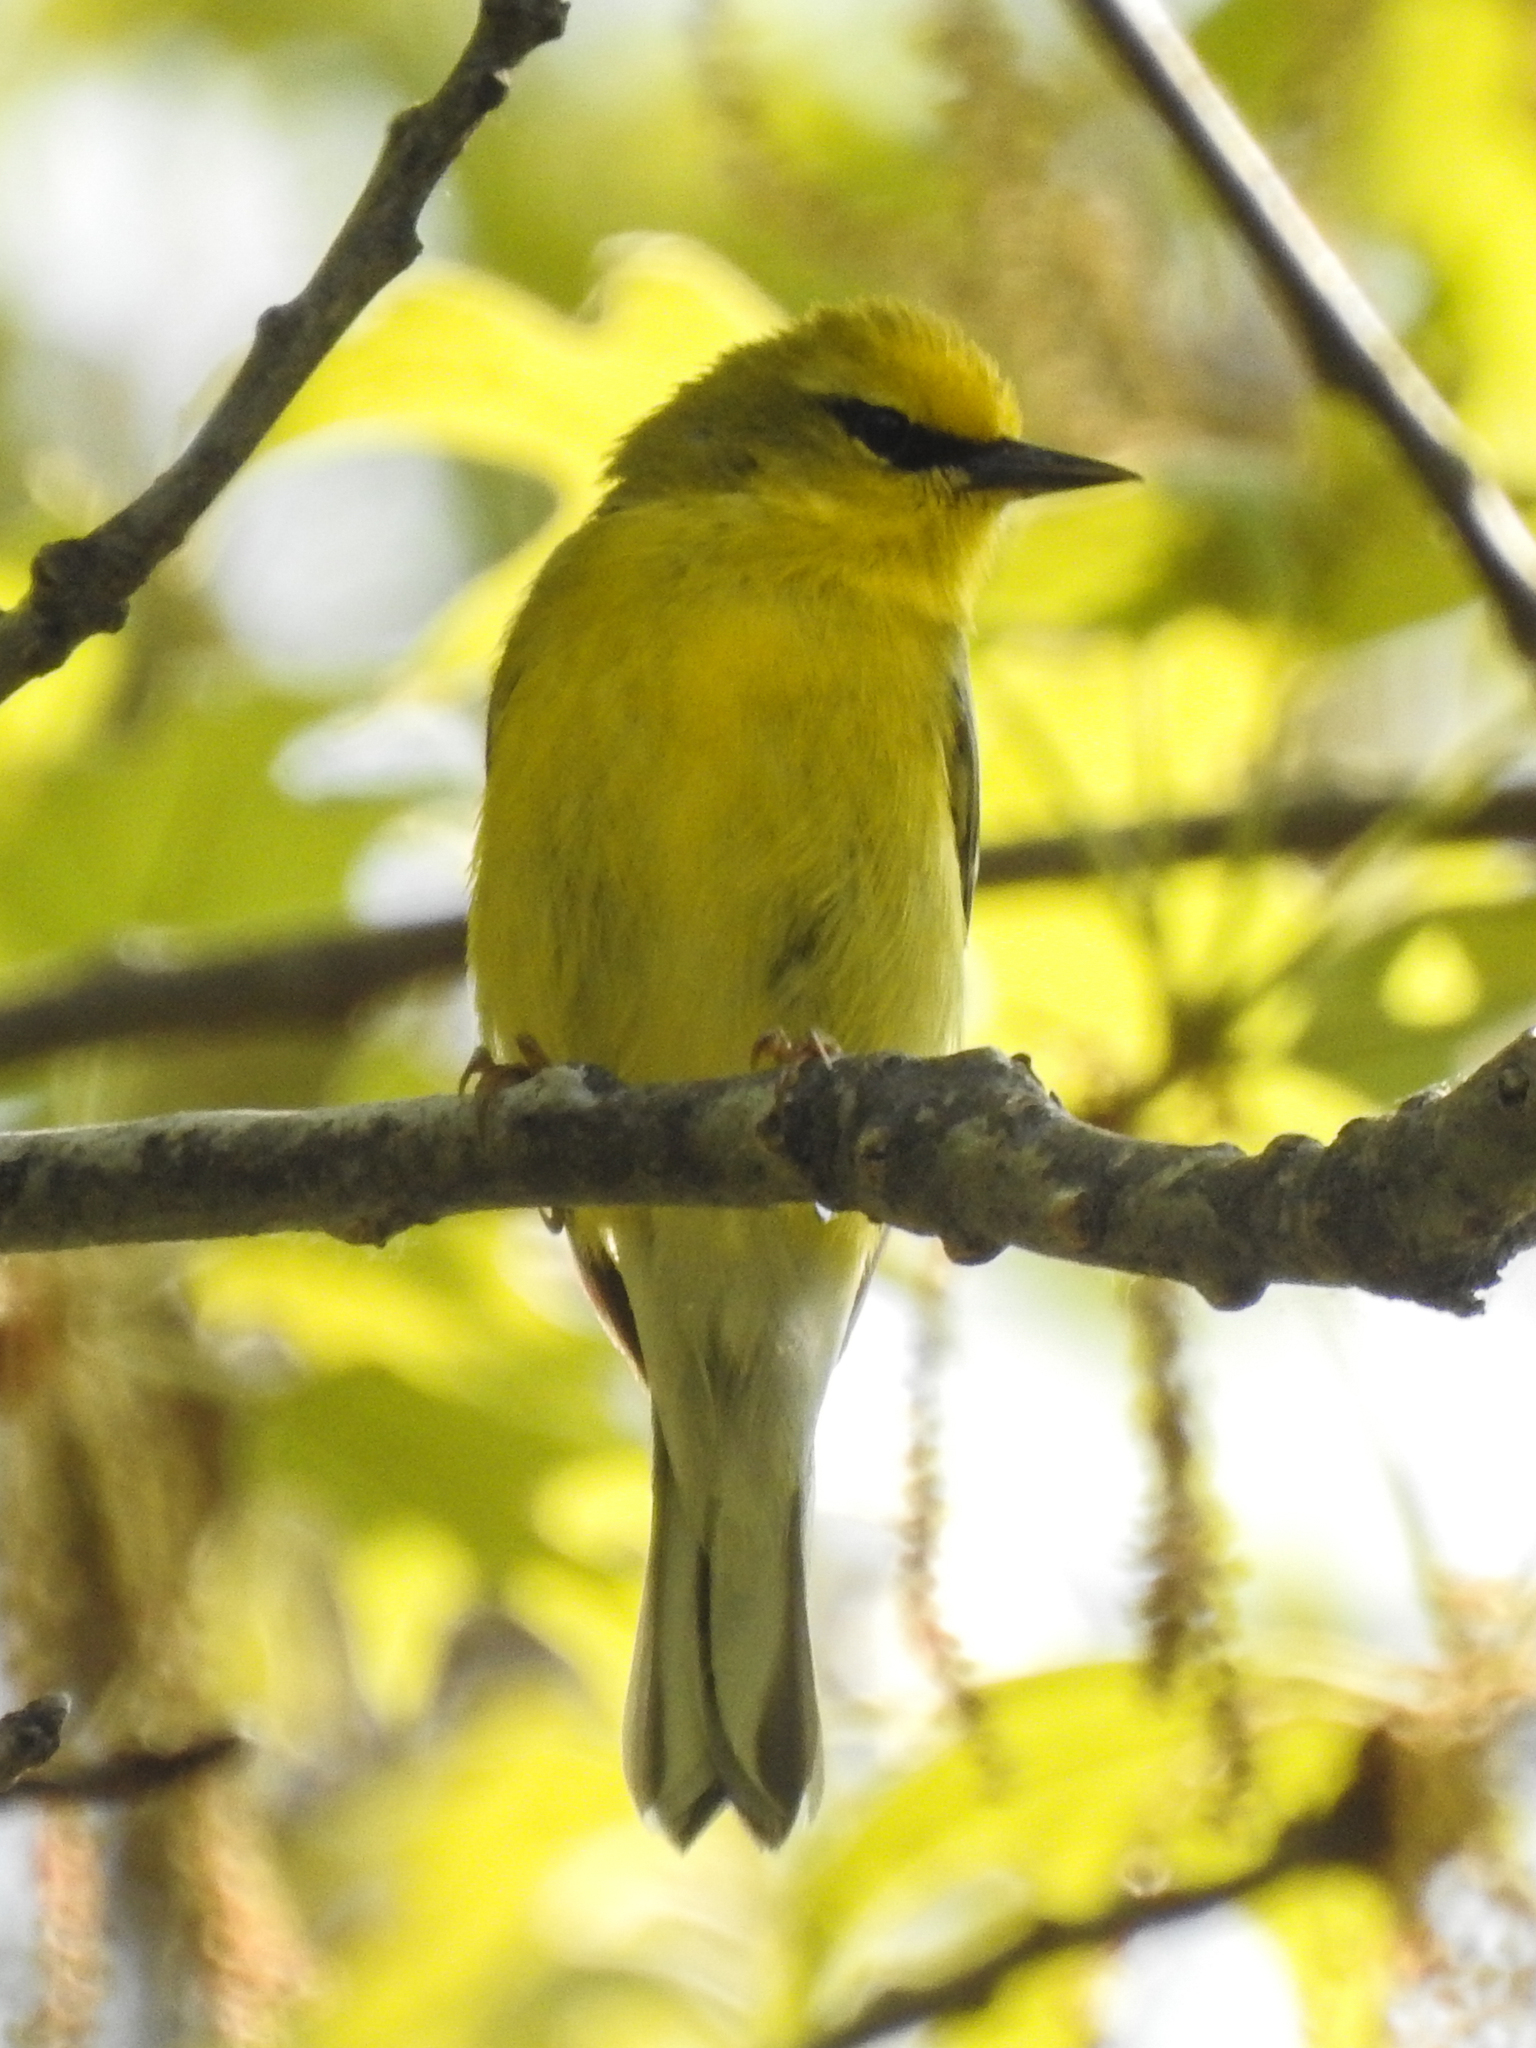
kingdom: Animalia
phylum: Chordata
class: Aves
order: Passeriformes
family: Parulidae
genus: Vermivora
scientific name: Vermivora cyanoptera
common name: Blue-winged warbler
